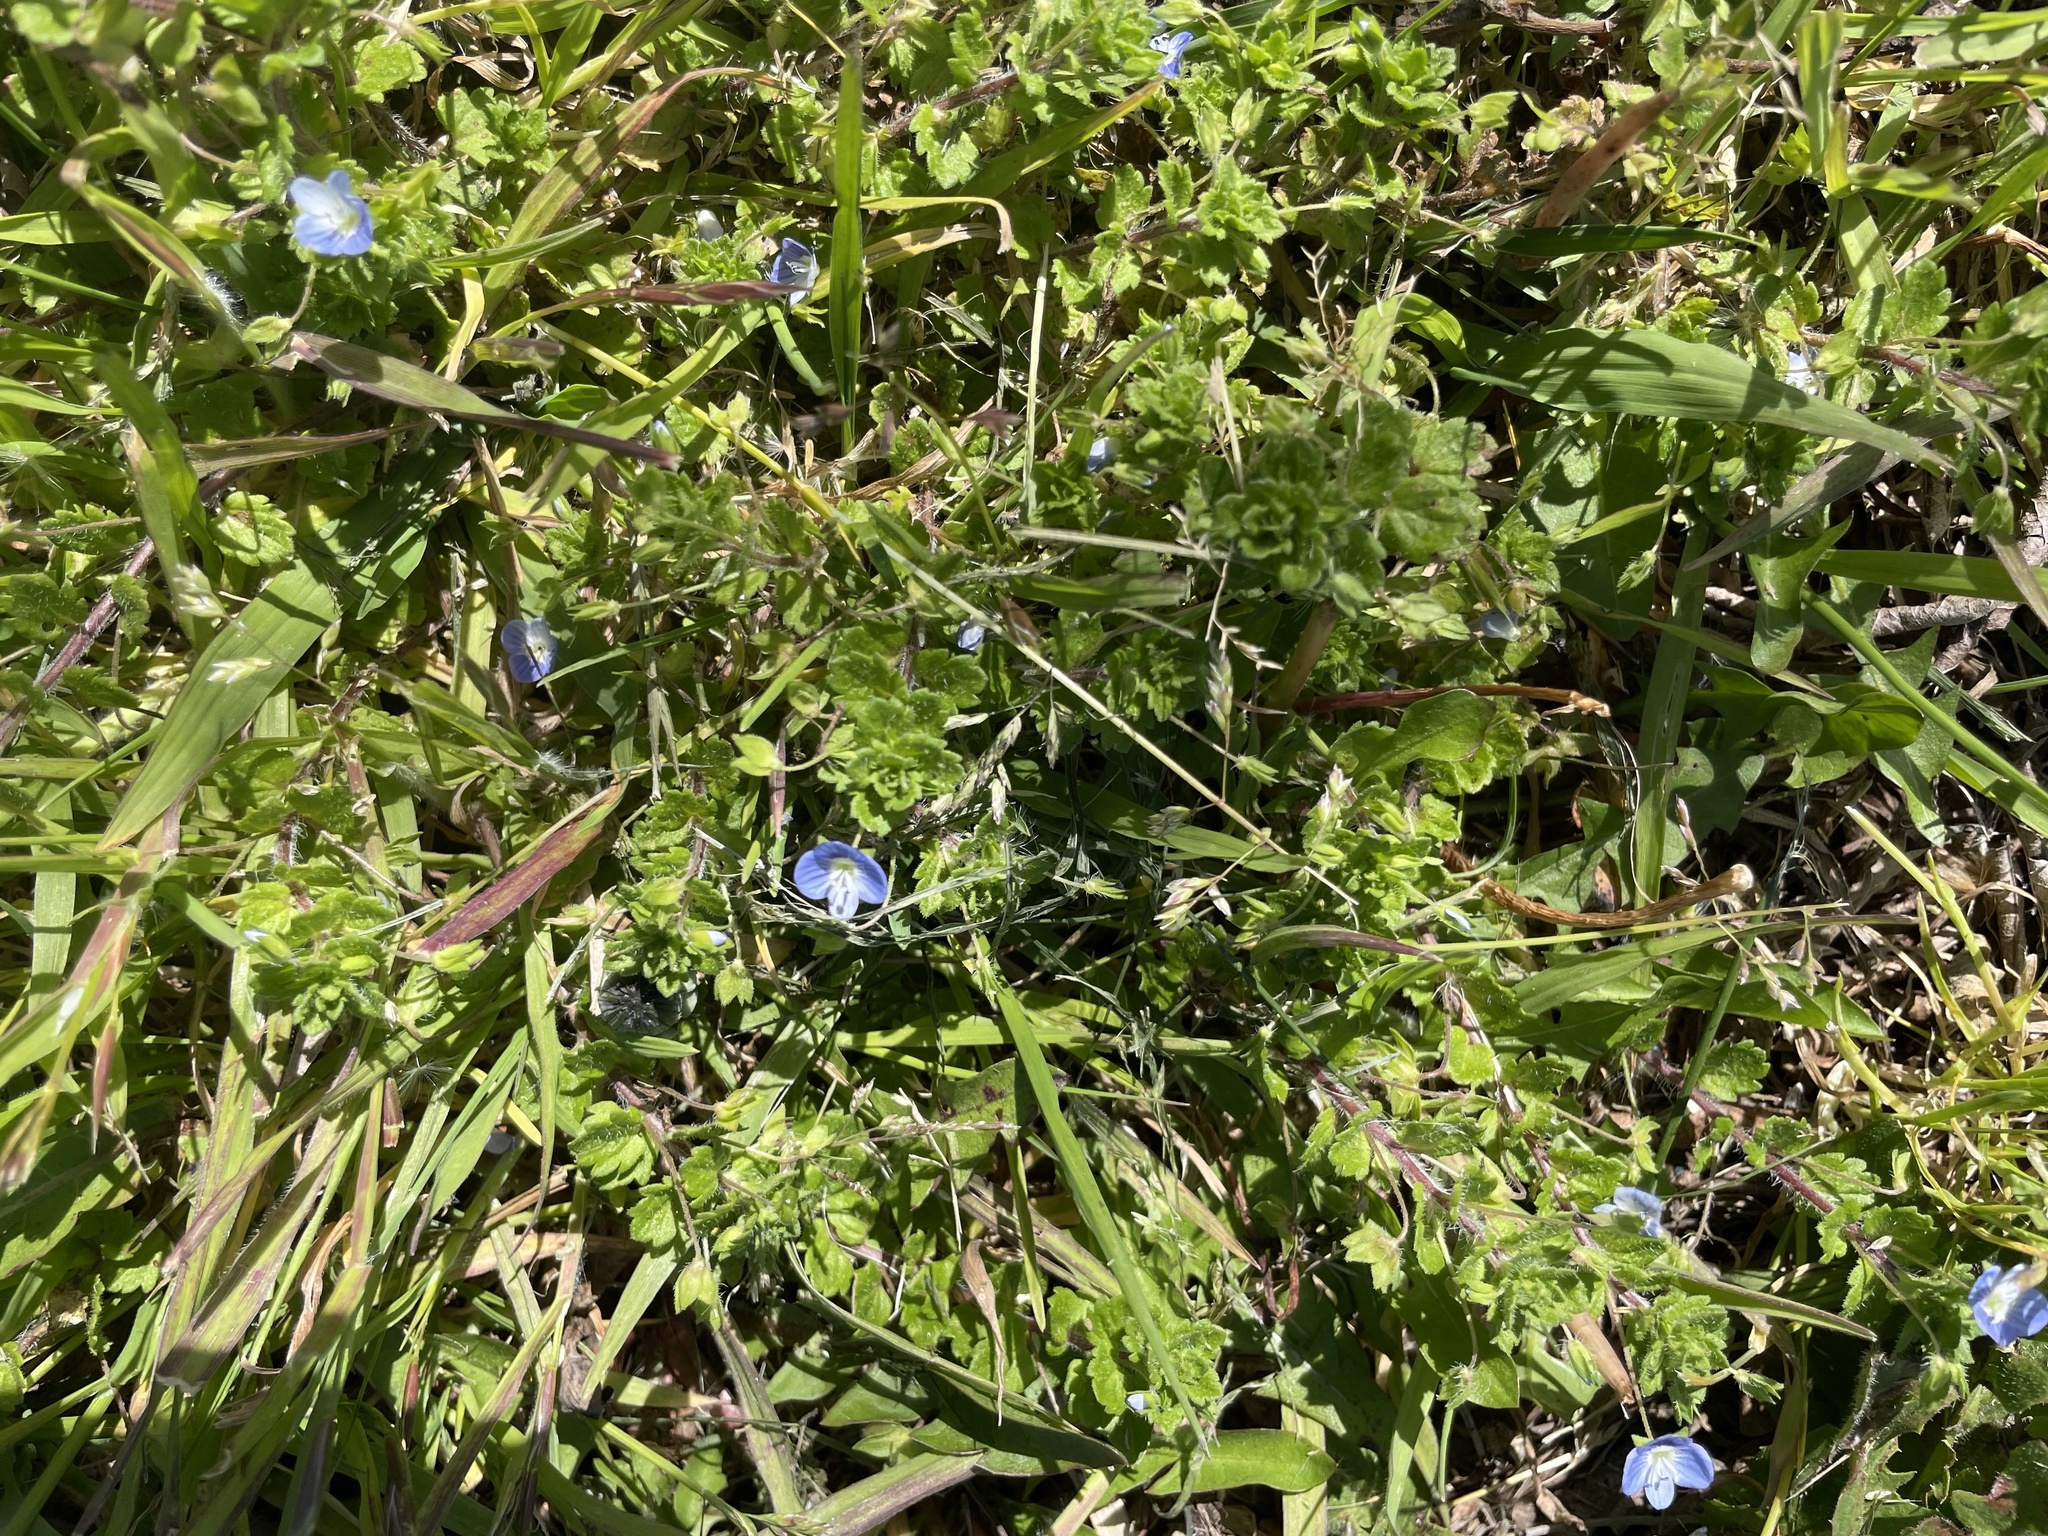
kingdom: Plantae
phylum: Tracheophyta
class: Magnoliopsida
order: Lamiales
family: Plantaginaceae
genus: Veronica
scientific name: Veronica persica
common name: Common field-speedwell
